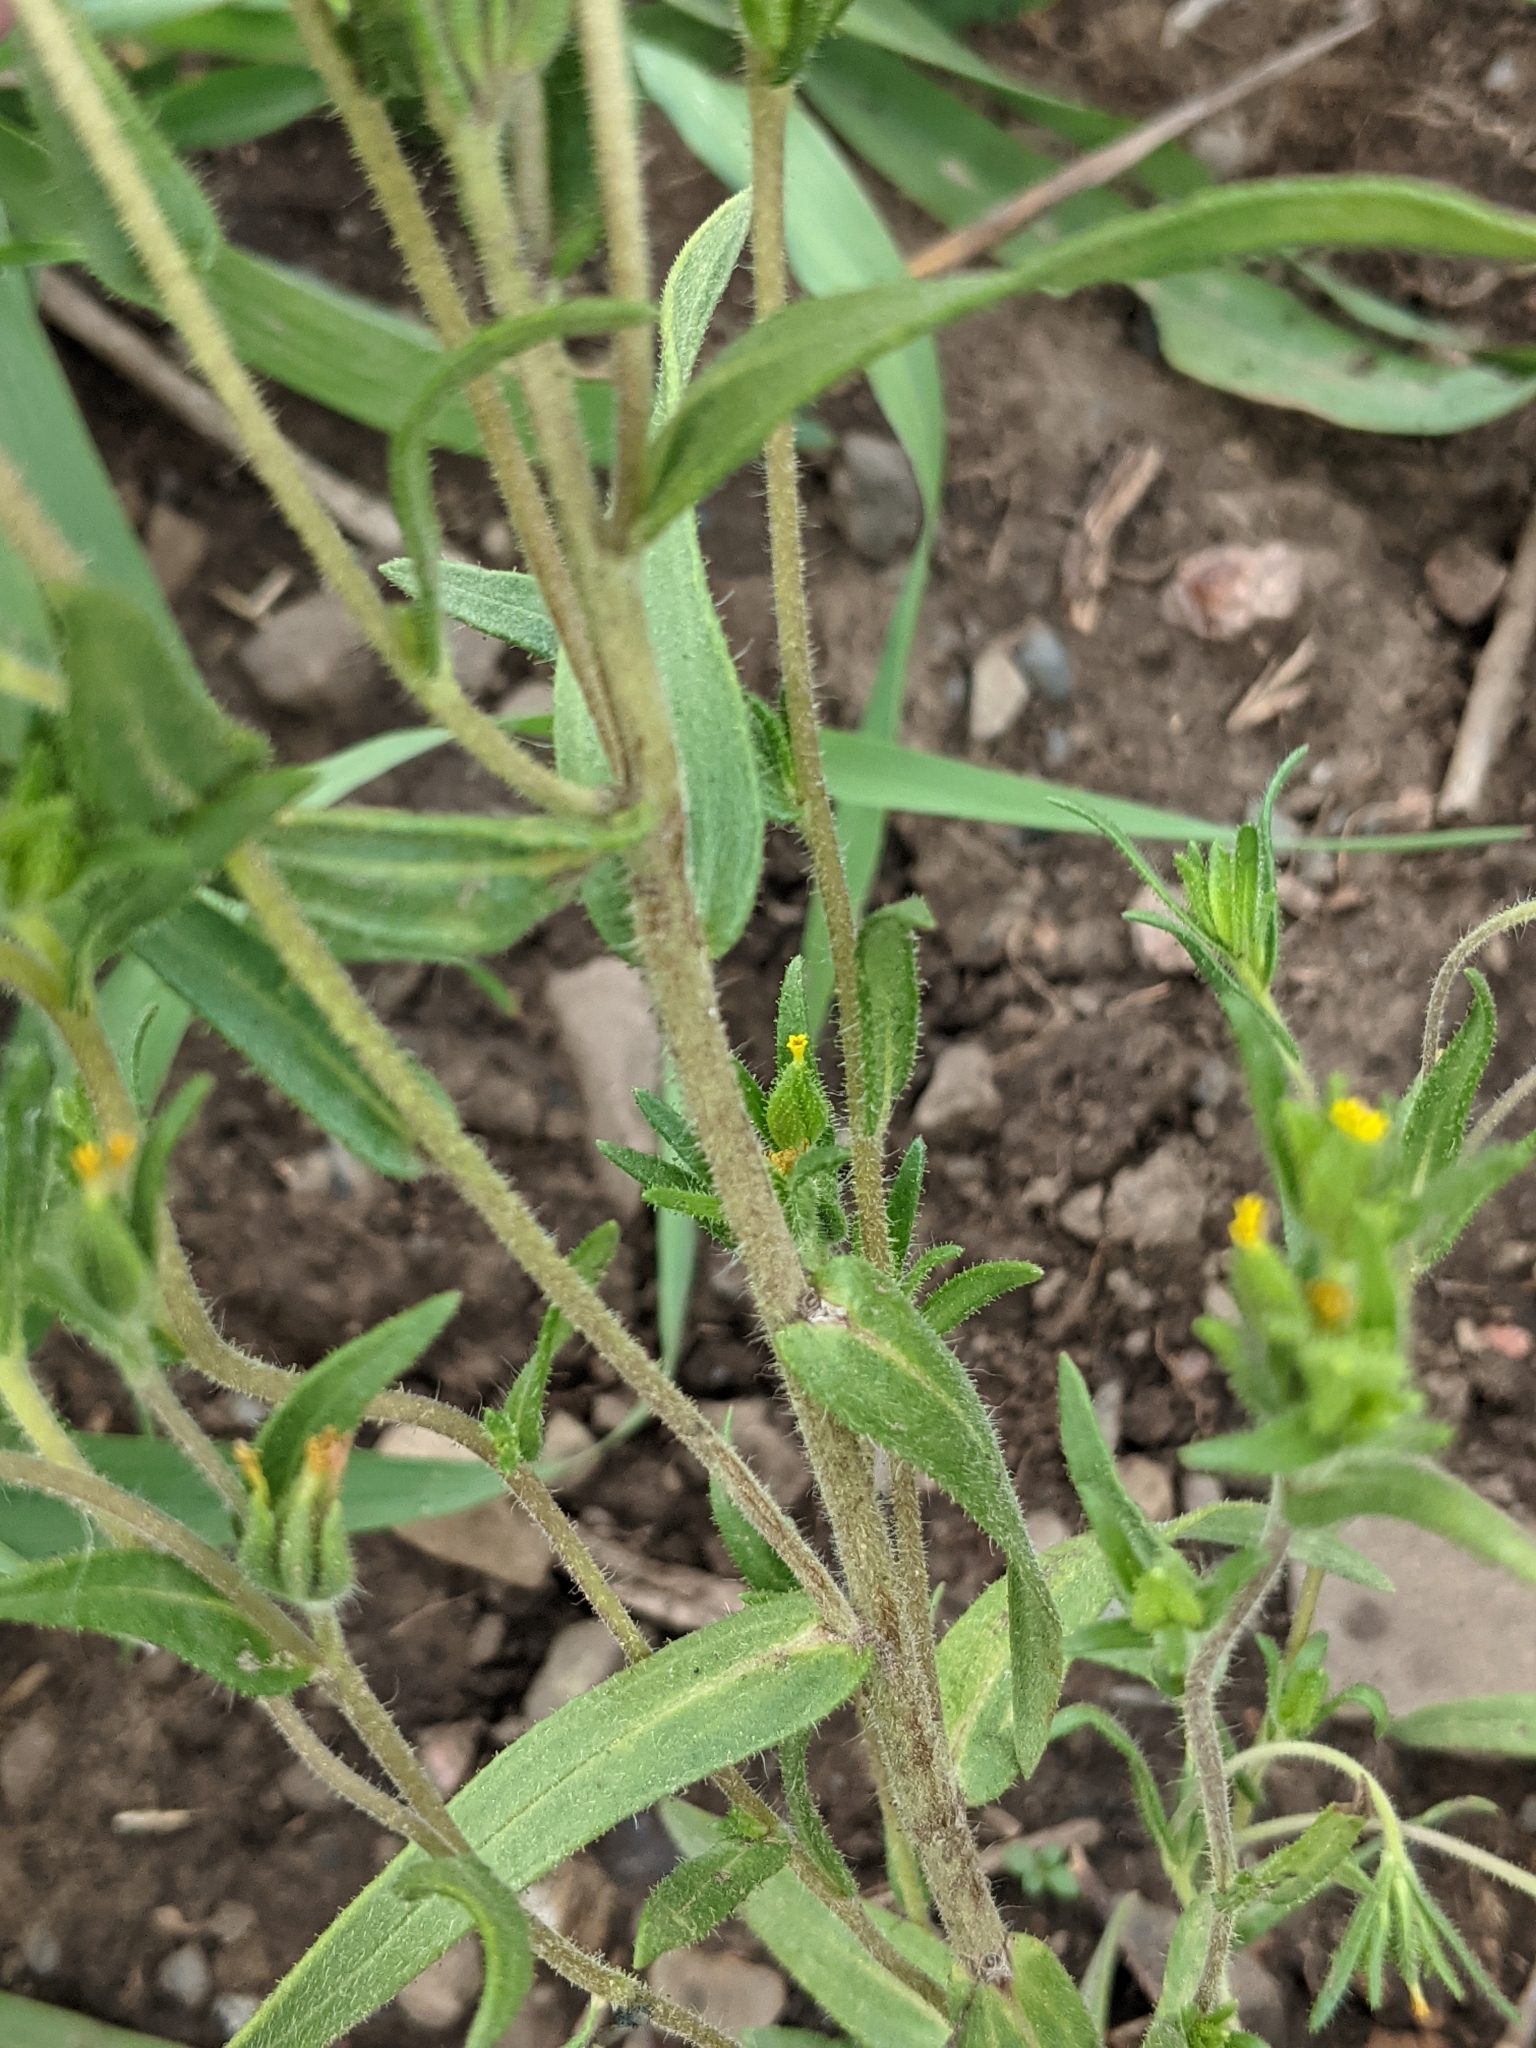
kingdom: Plantae
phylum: Tracheophyta
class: Magnoliopsida
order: Asterales
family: Asteraceae
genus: Madia
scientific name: Madia glomerata
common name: Mountain tarweed
